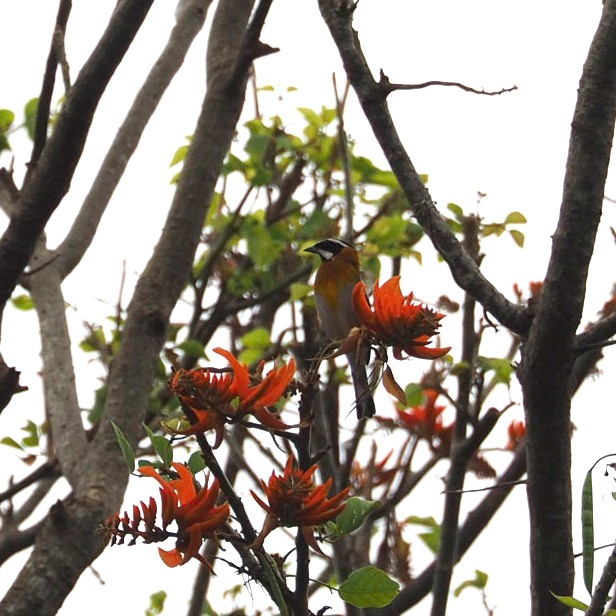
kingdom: Animalia
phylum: Chordata
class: Aves
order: Passeriformes
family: Spindalidae
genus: Spindalis
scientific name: Spindalis zena
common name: Western spindalis
